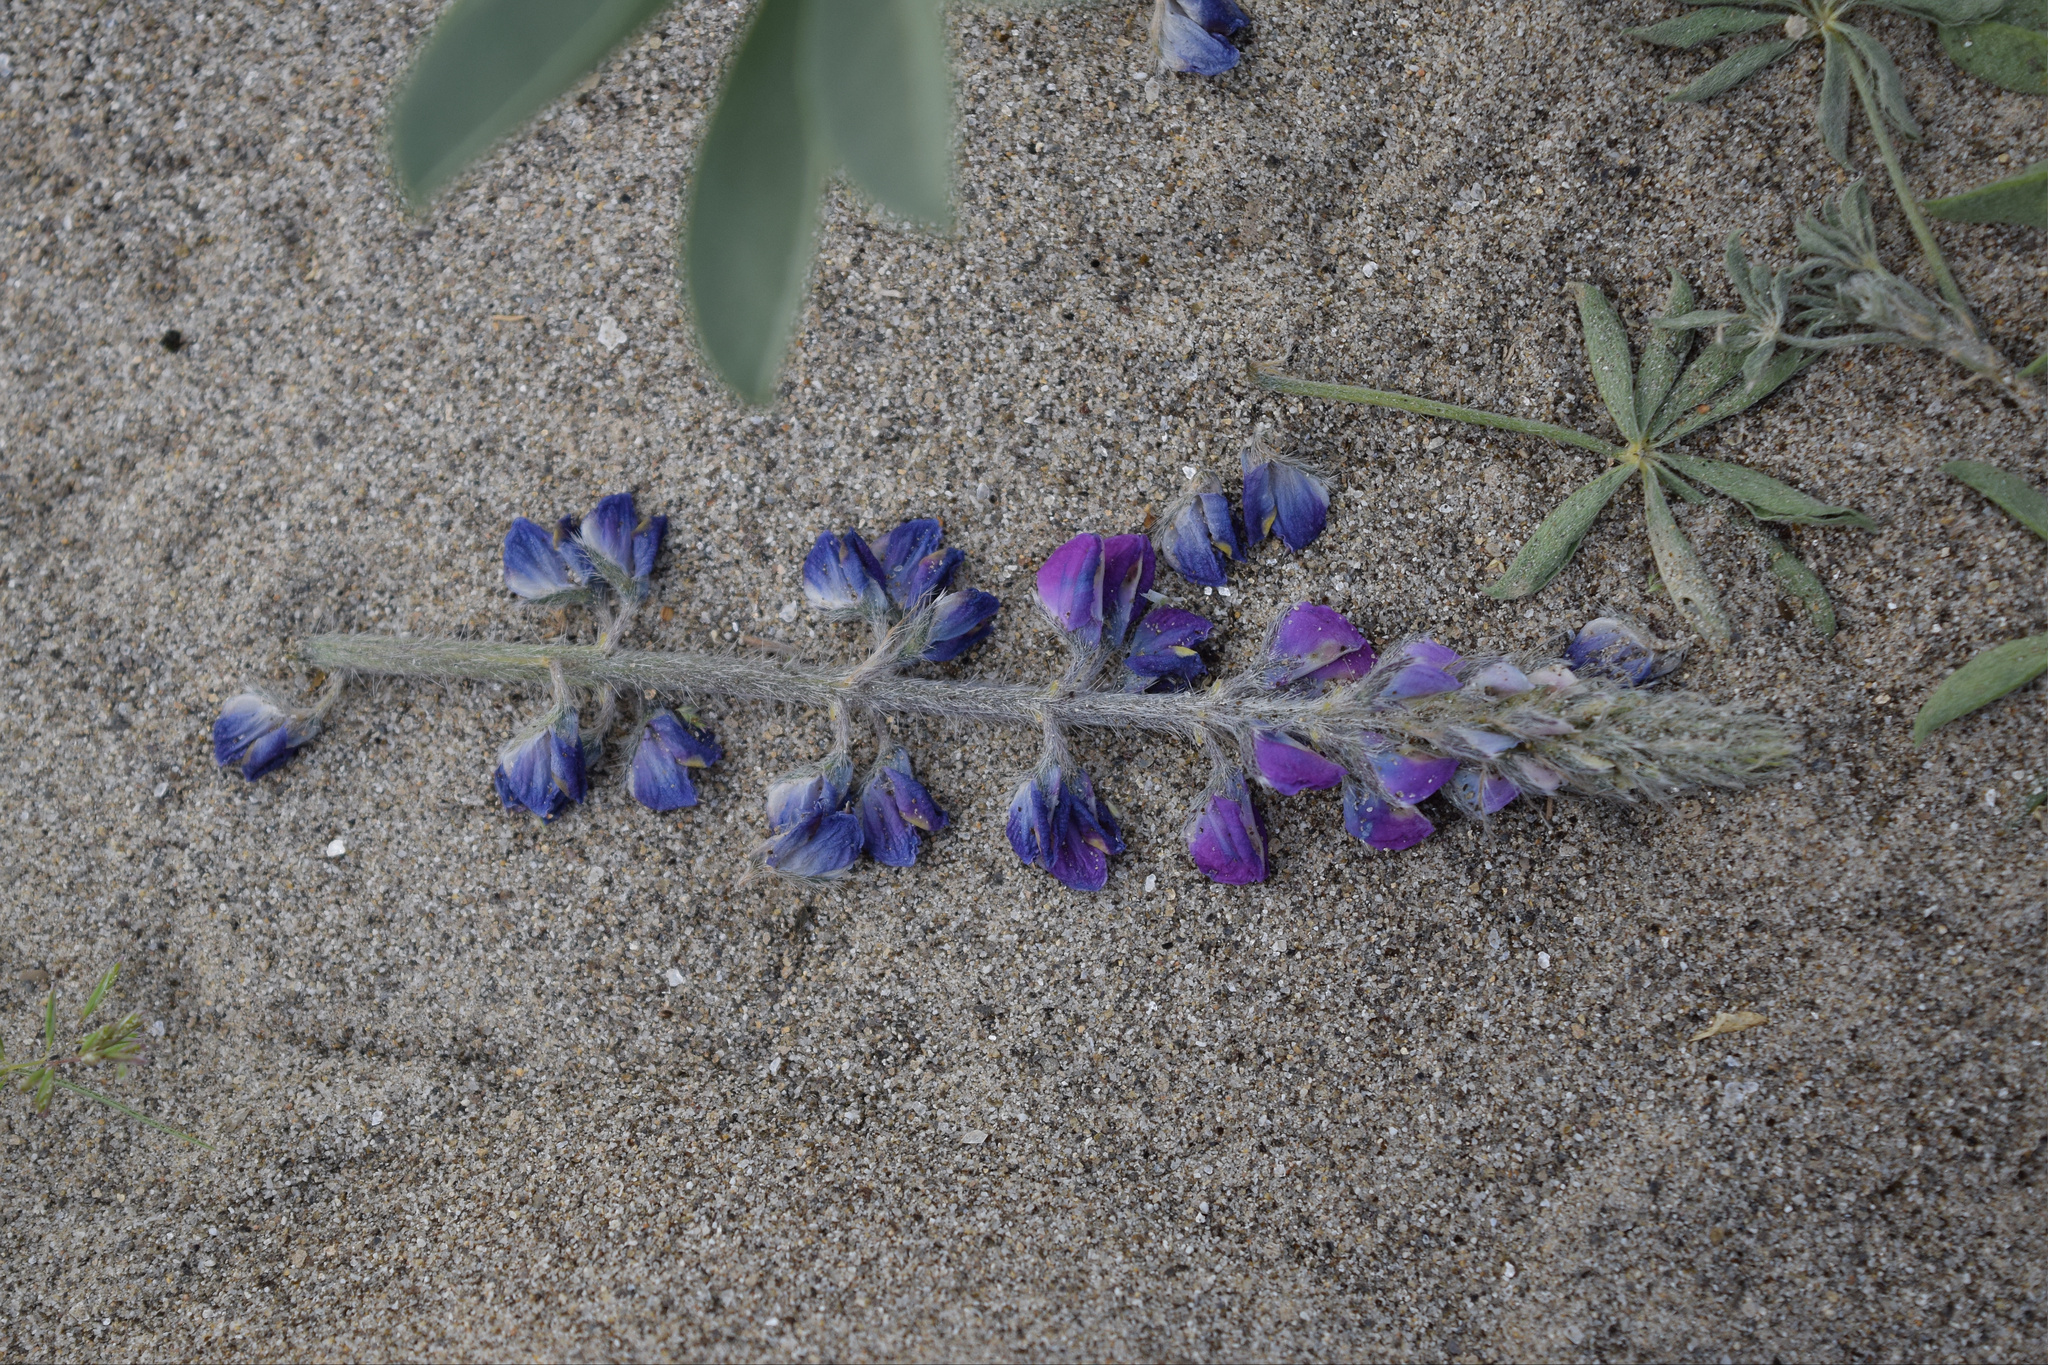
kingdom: Plantae
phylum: Tracheophyta
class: Magnoliopsida
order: Fabales
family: Fabaceae
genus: Lupinus
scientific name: Lupinus arizonicus
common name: Arizona lupine
